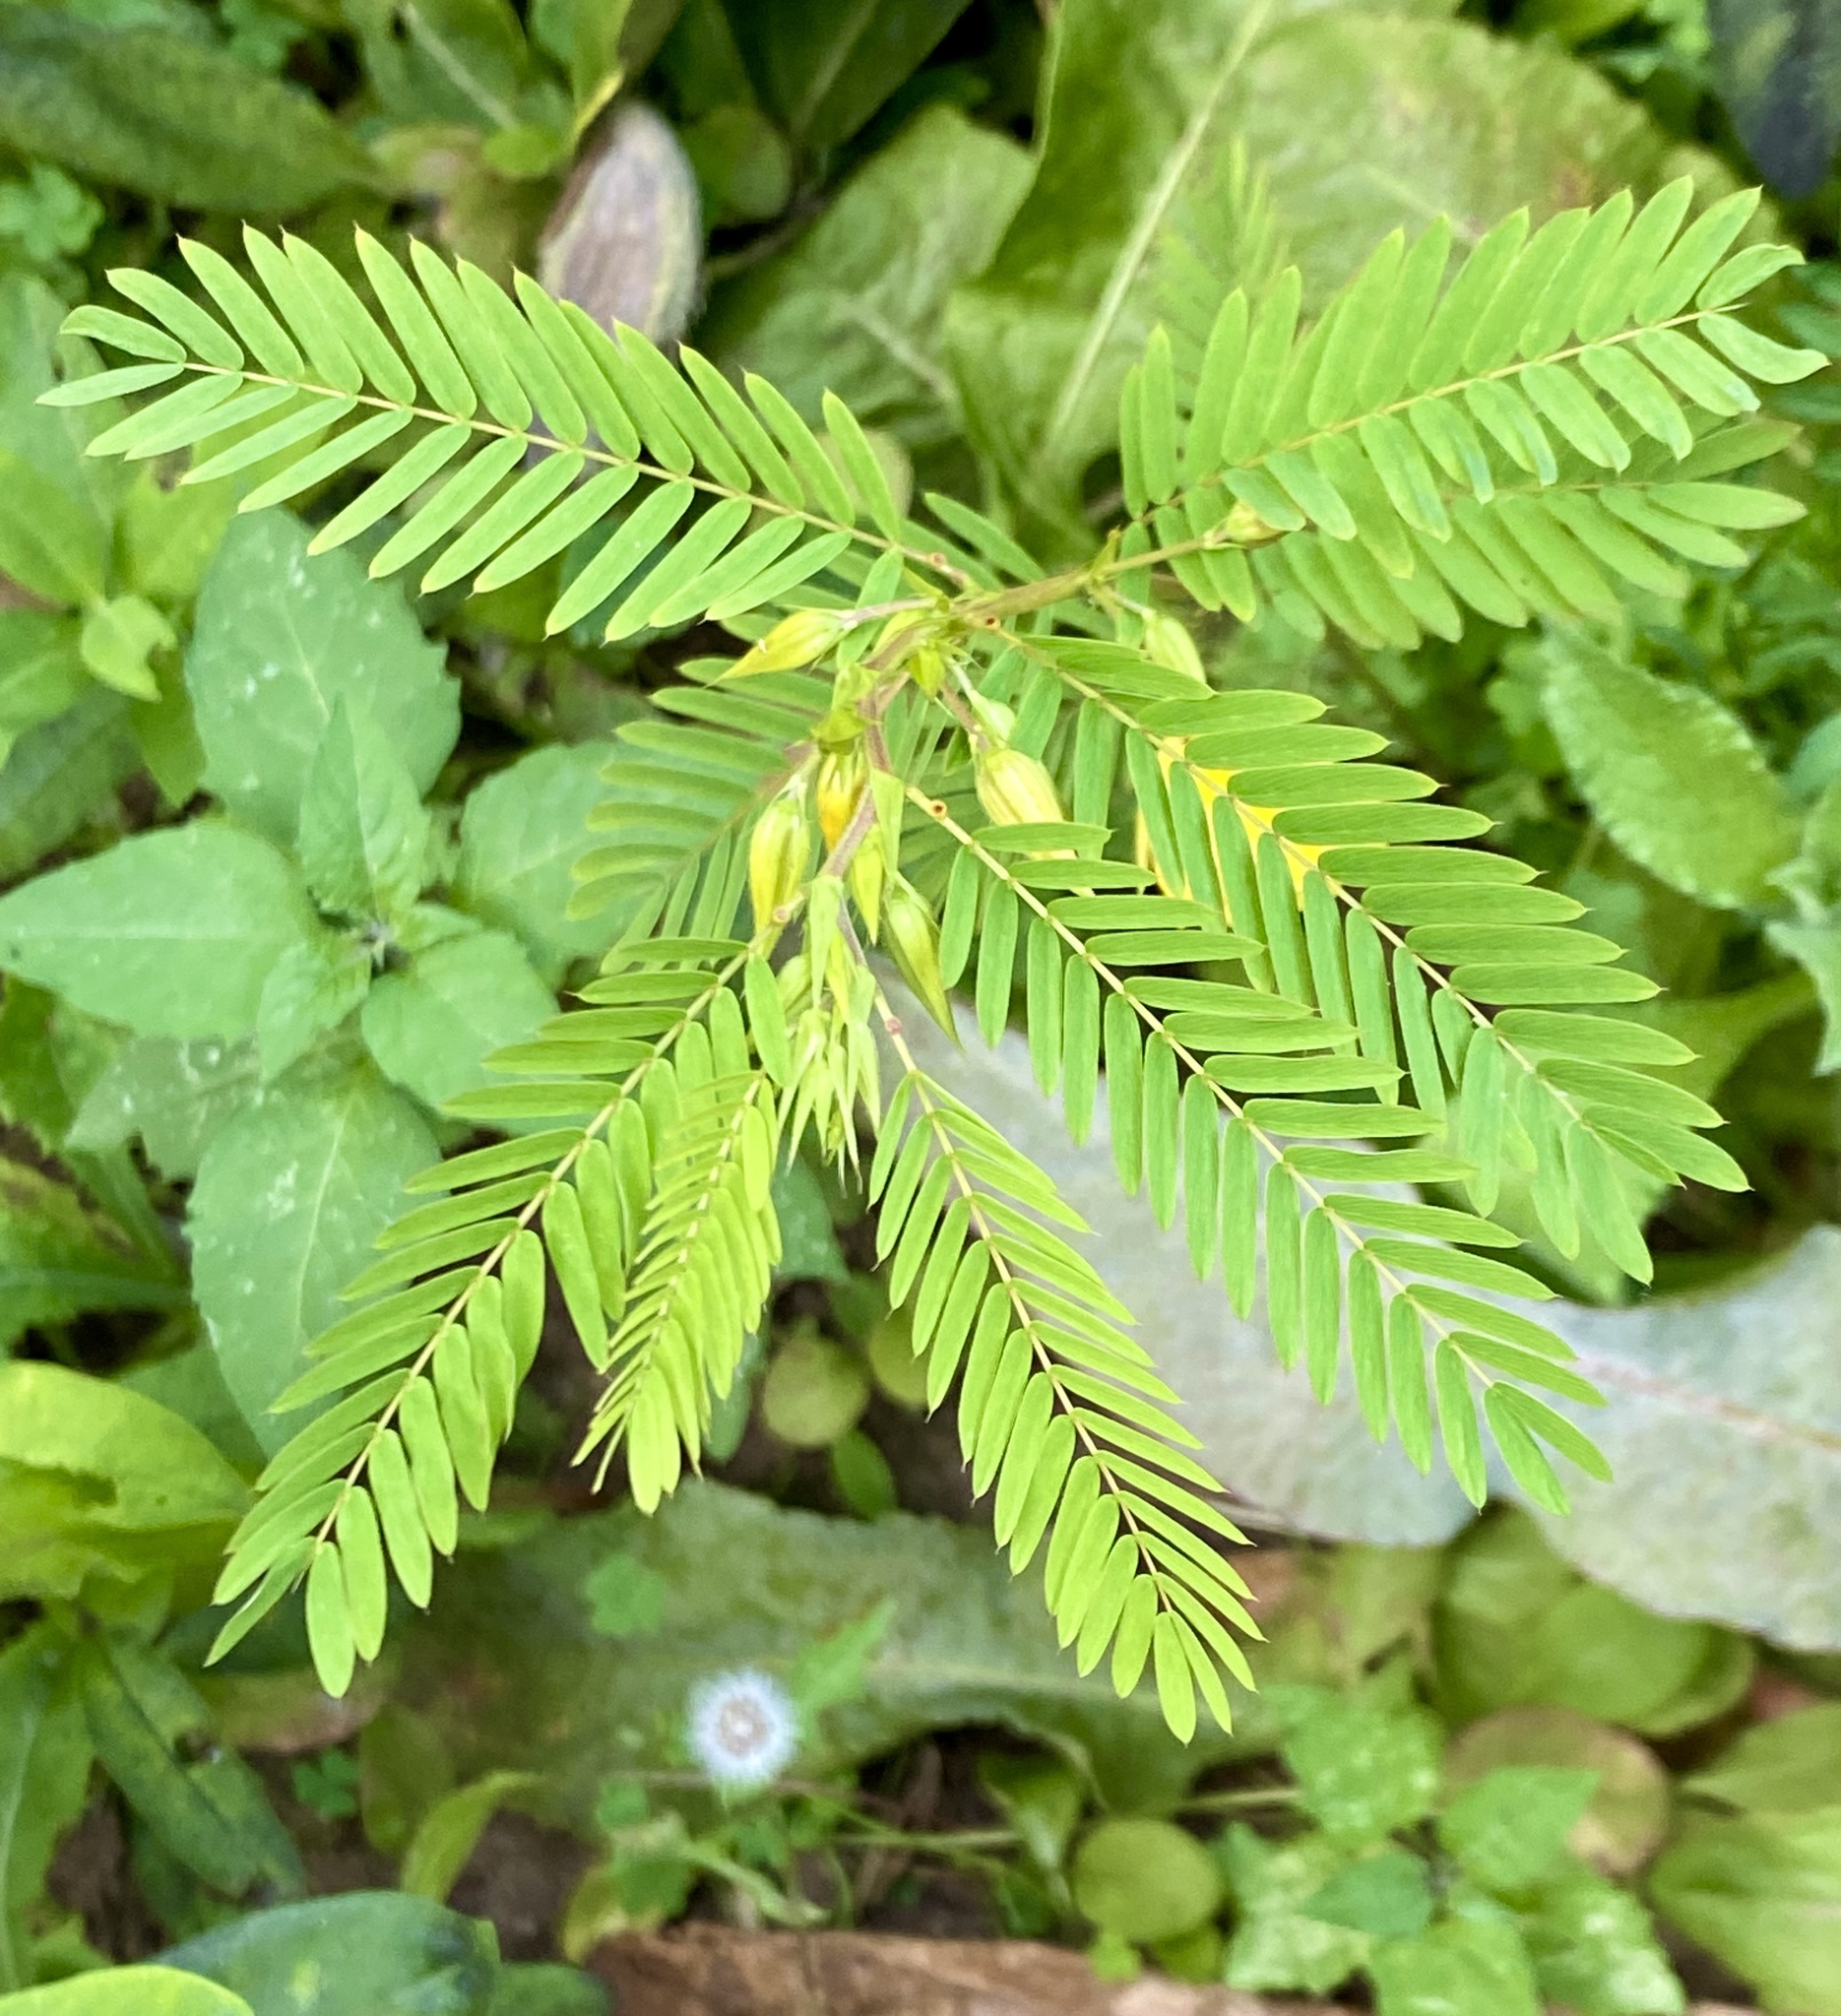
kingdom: Plantae
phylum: Tracheophyta
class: Magnoliopsida
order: Fabales
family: Fabaceae
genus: Chamaecrista
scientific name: Chamaecrista fasciculata
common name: Golden cassia
